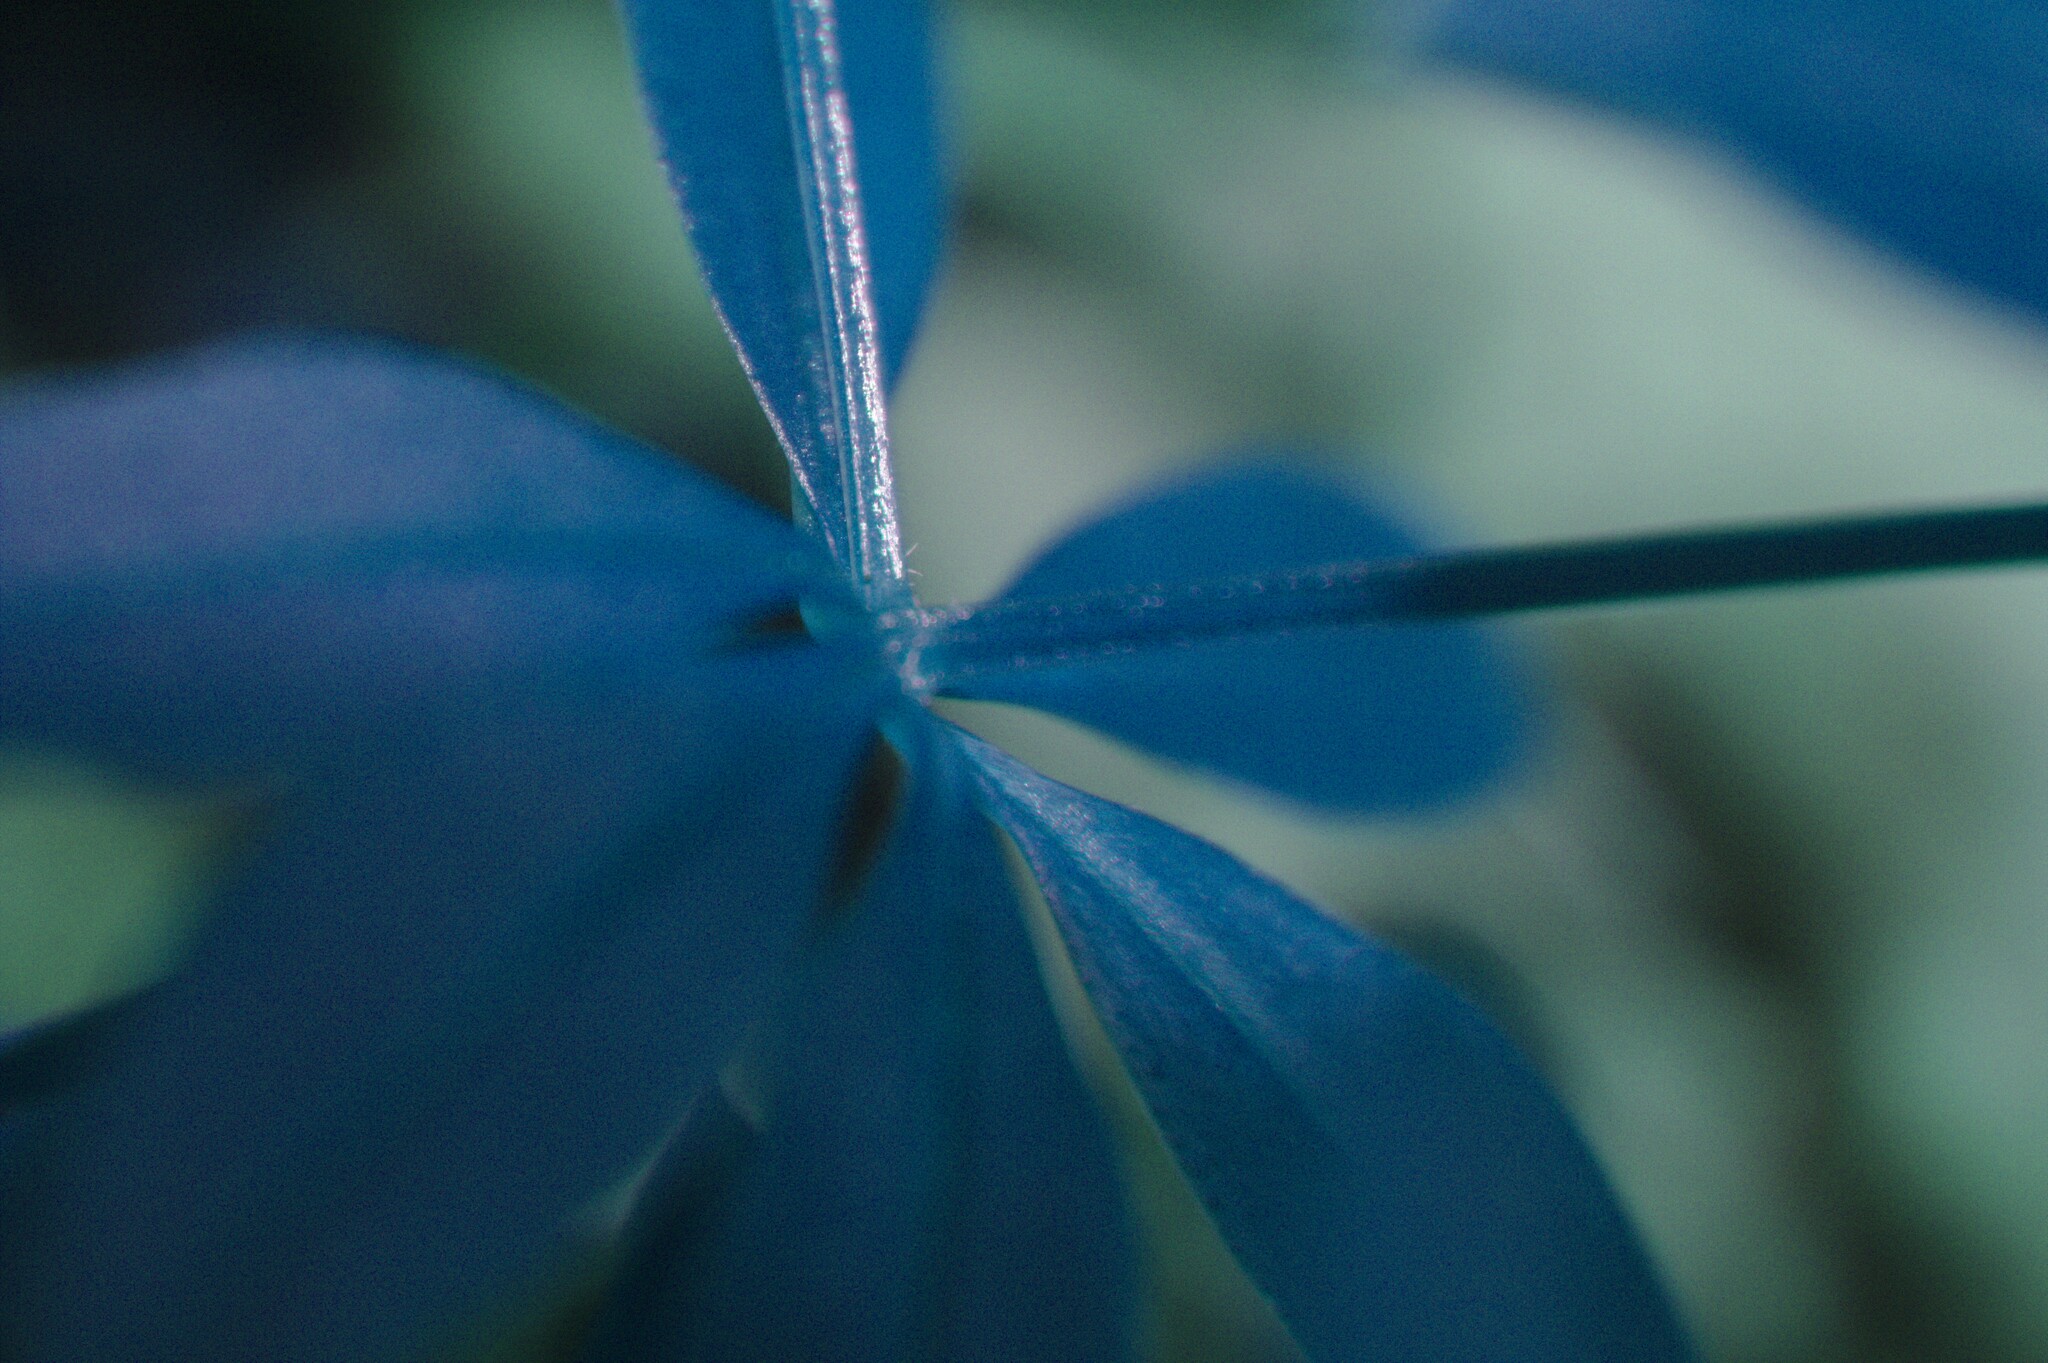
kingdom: Plantae
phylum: Tracheophyta
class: Magnoliopsida
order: Gentianales
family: Rubiaceae
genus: Galium
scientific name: Galium triflorum
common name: Fragrant bedstraw
